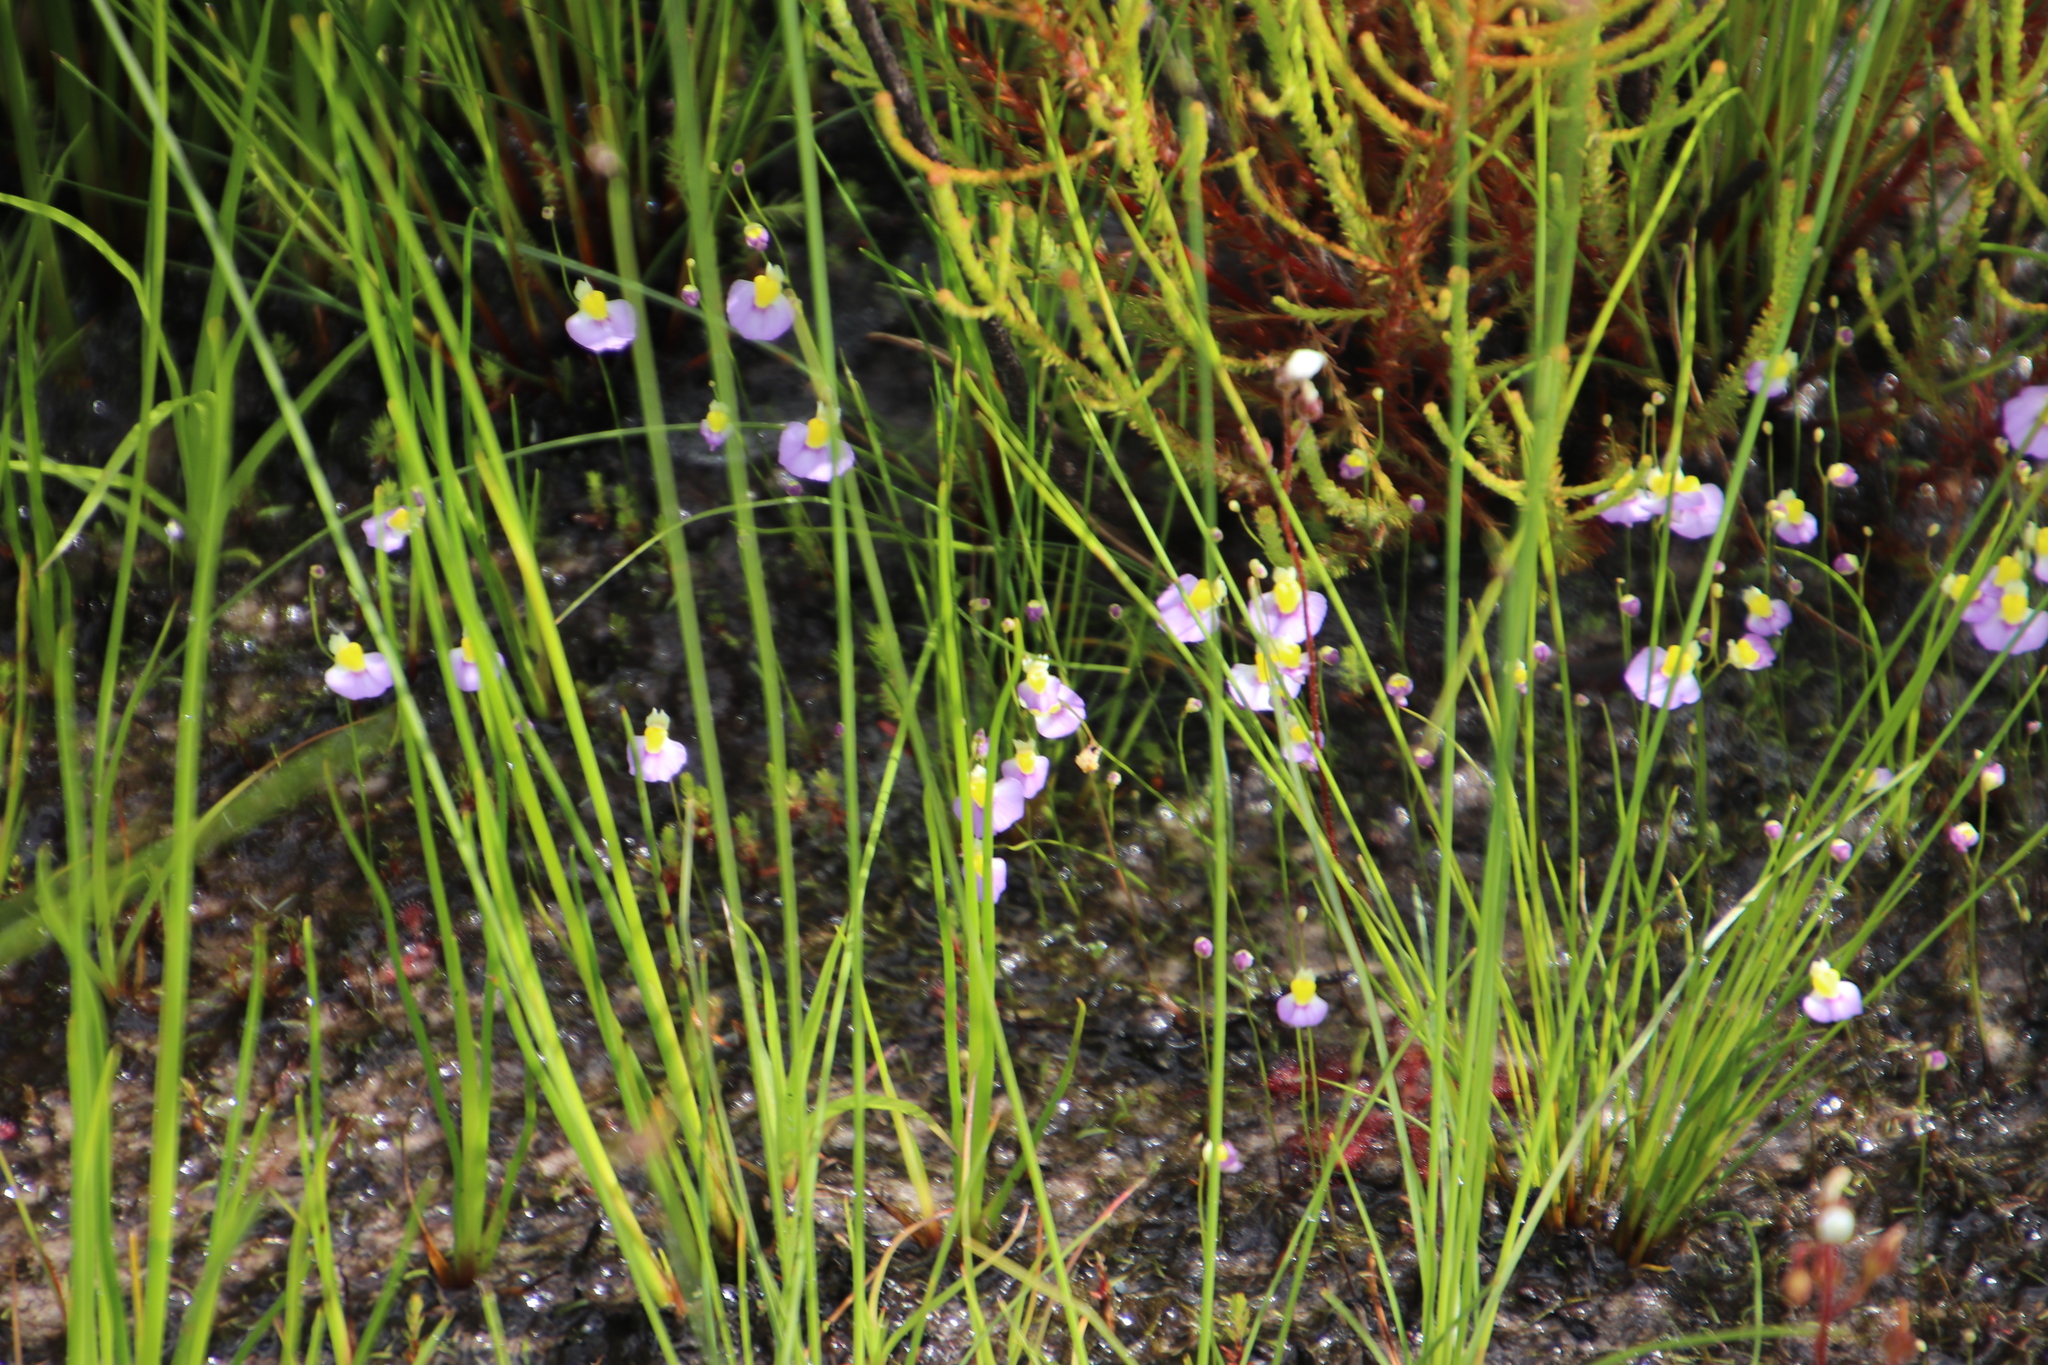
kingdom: Plantae
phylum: Tracheophyta
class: Magnoliopsida
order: Lamiales
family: Lentibulariaceae
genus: Utricularia
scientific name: Utricularia bisquamata
